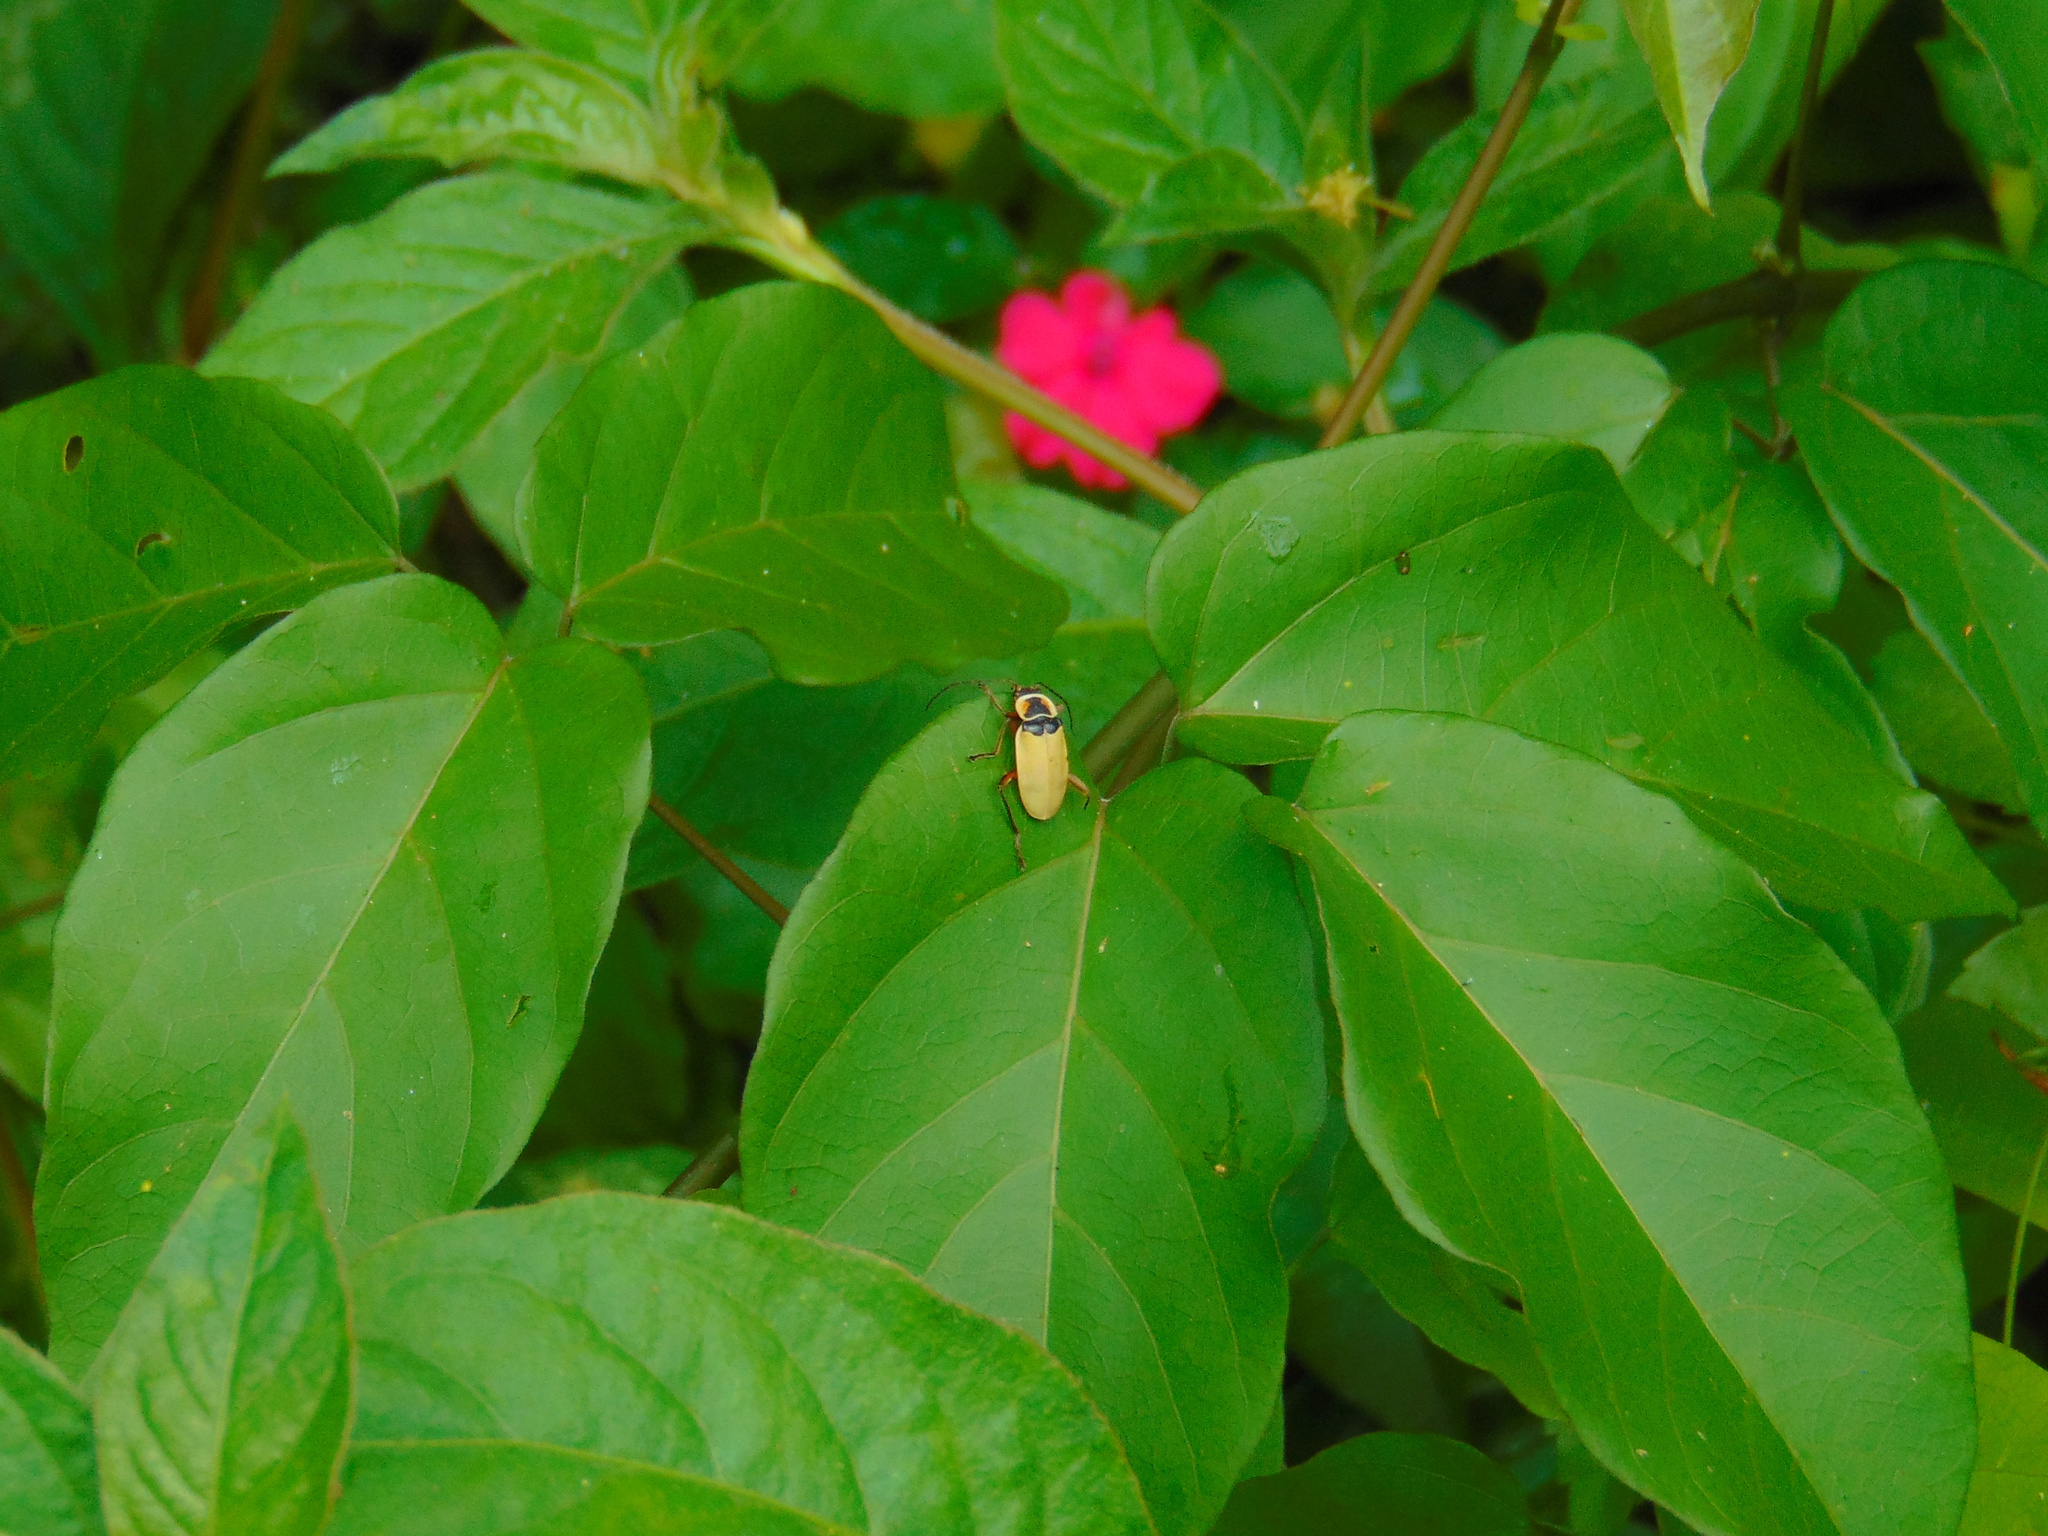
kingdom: Animalia
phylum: Arthropoda
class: Insecta
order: Coleoptera
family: Cantharidae
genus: Chauliognathus
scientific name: Chauliognathus
